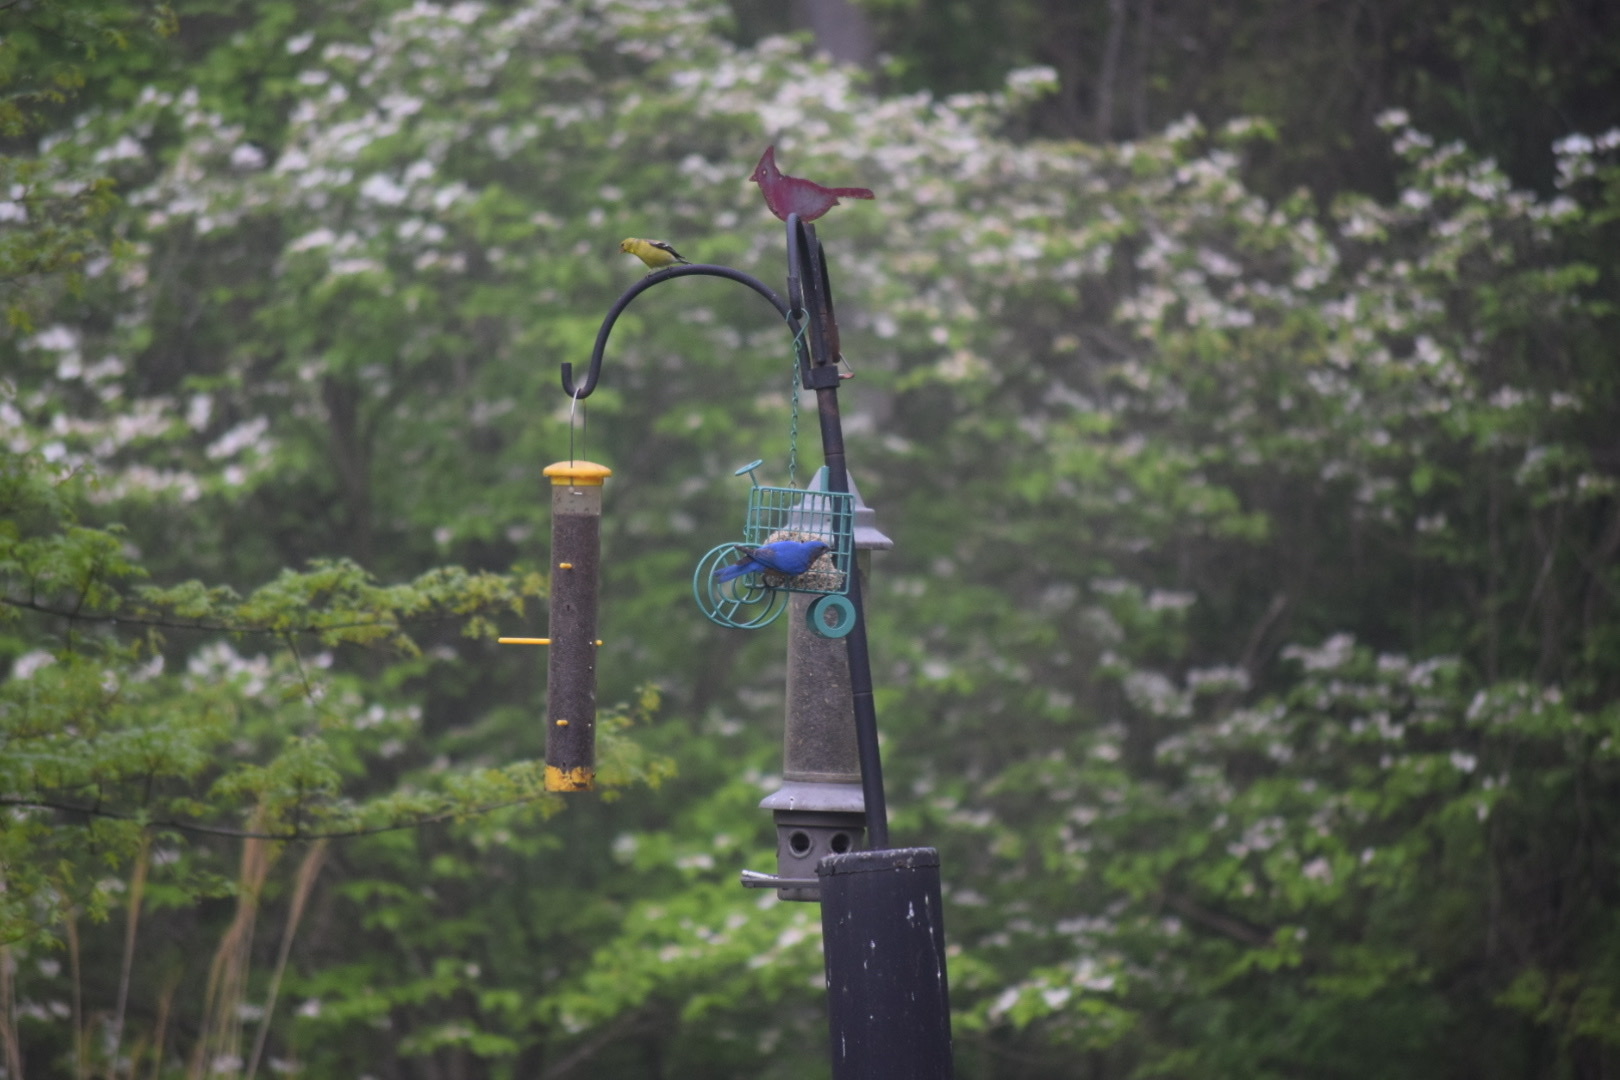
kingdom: Animalia
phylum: Chordata
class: Aves
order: Passeriformes
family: Fringillidae
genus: Spinus
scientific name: Spinus tristis
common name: American goldfinch
